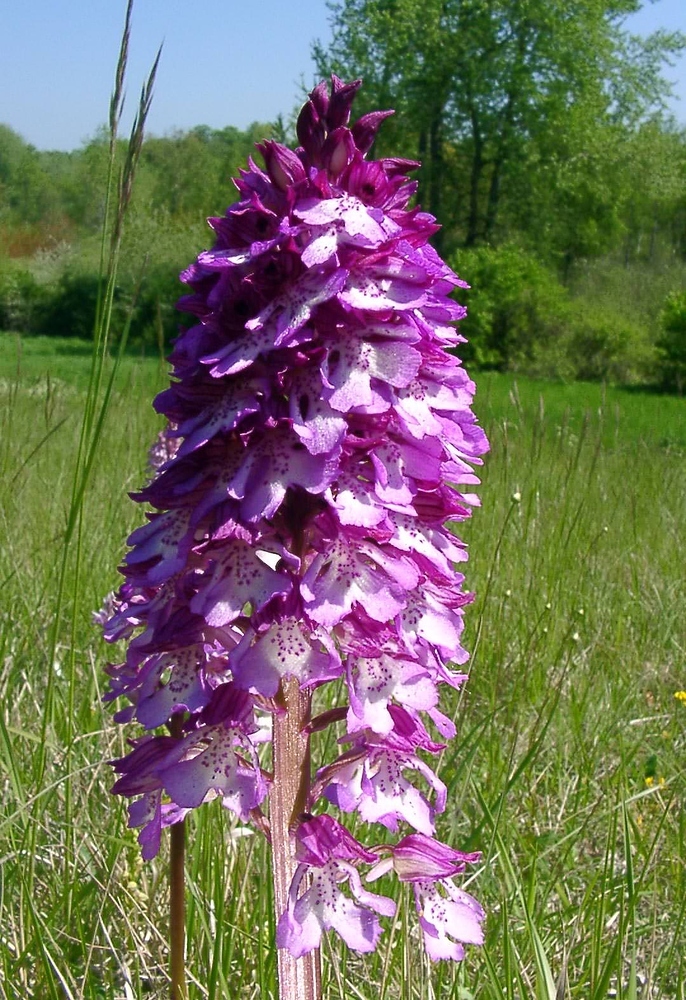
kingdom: Plantae
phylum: Tracheophyta
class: Liliopsida
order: Asparagales
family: Orchidaceae
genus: Orchis
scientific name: Orchis hybrida
